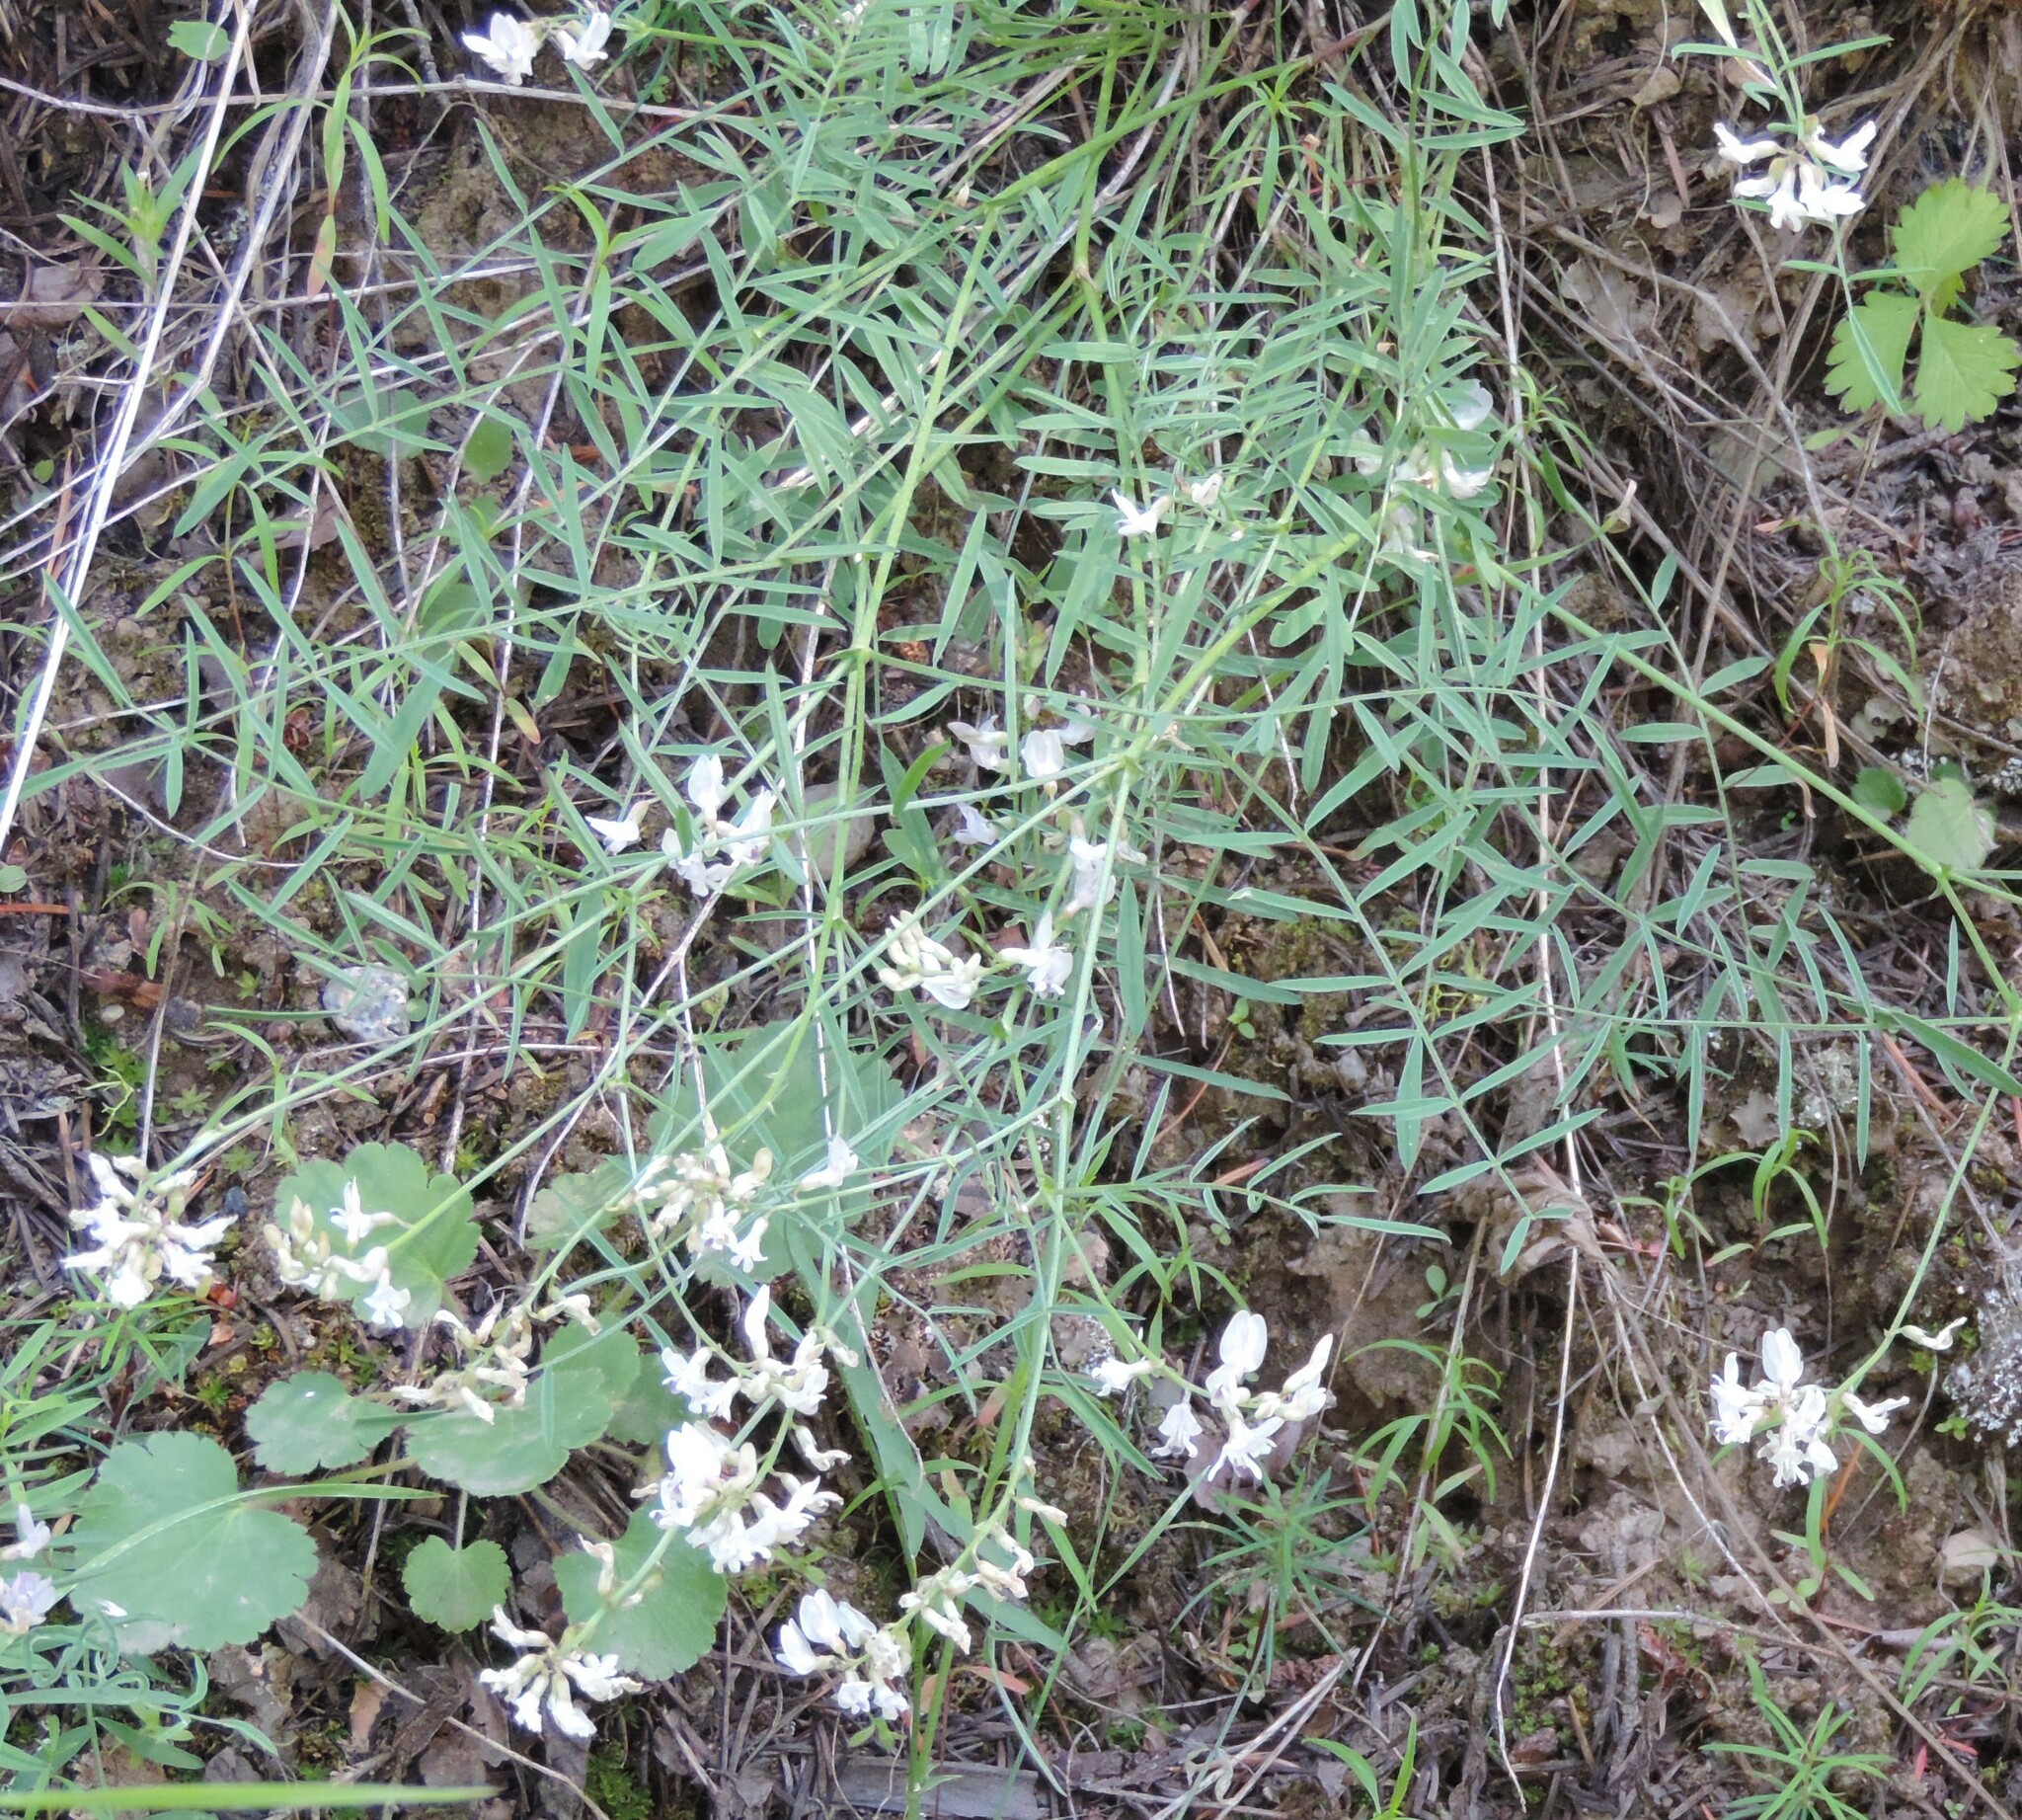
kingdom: Plantae
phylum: Tracheophyta
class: Magnoliopsida
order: Fabales
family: Fabaceae
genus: Astragalus
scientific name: Astragalus miser
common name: Timber milkvetch
